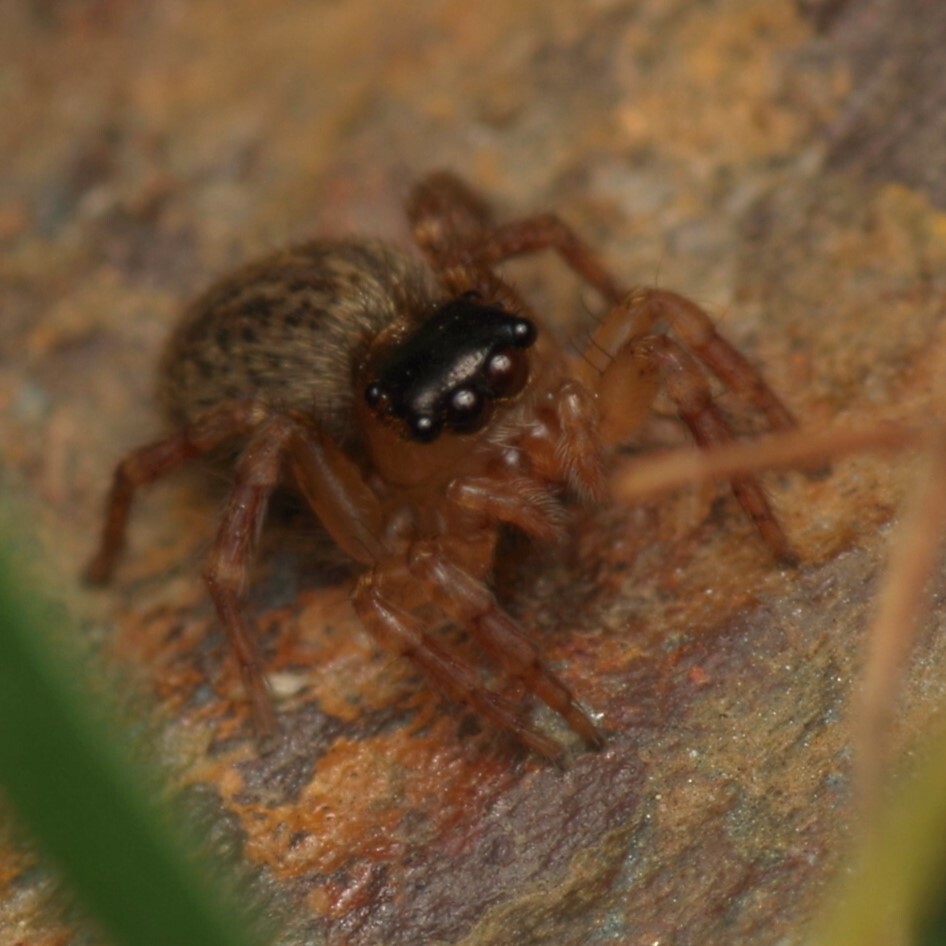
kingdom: Animalia
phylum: Arthropoda
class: Arachnida
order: Araneae
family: Salticidae
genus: Saitis
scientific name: Saitis barbipes
